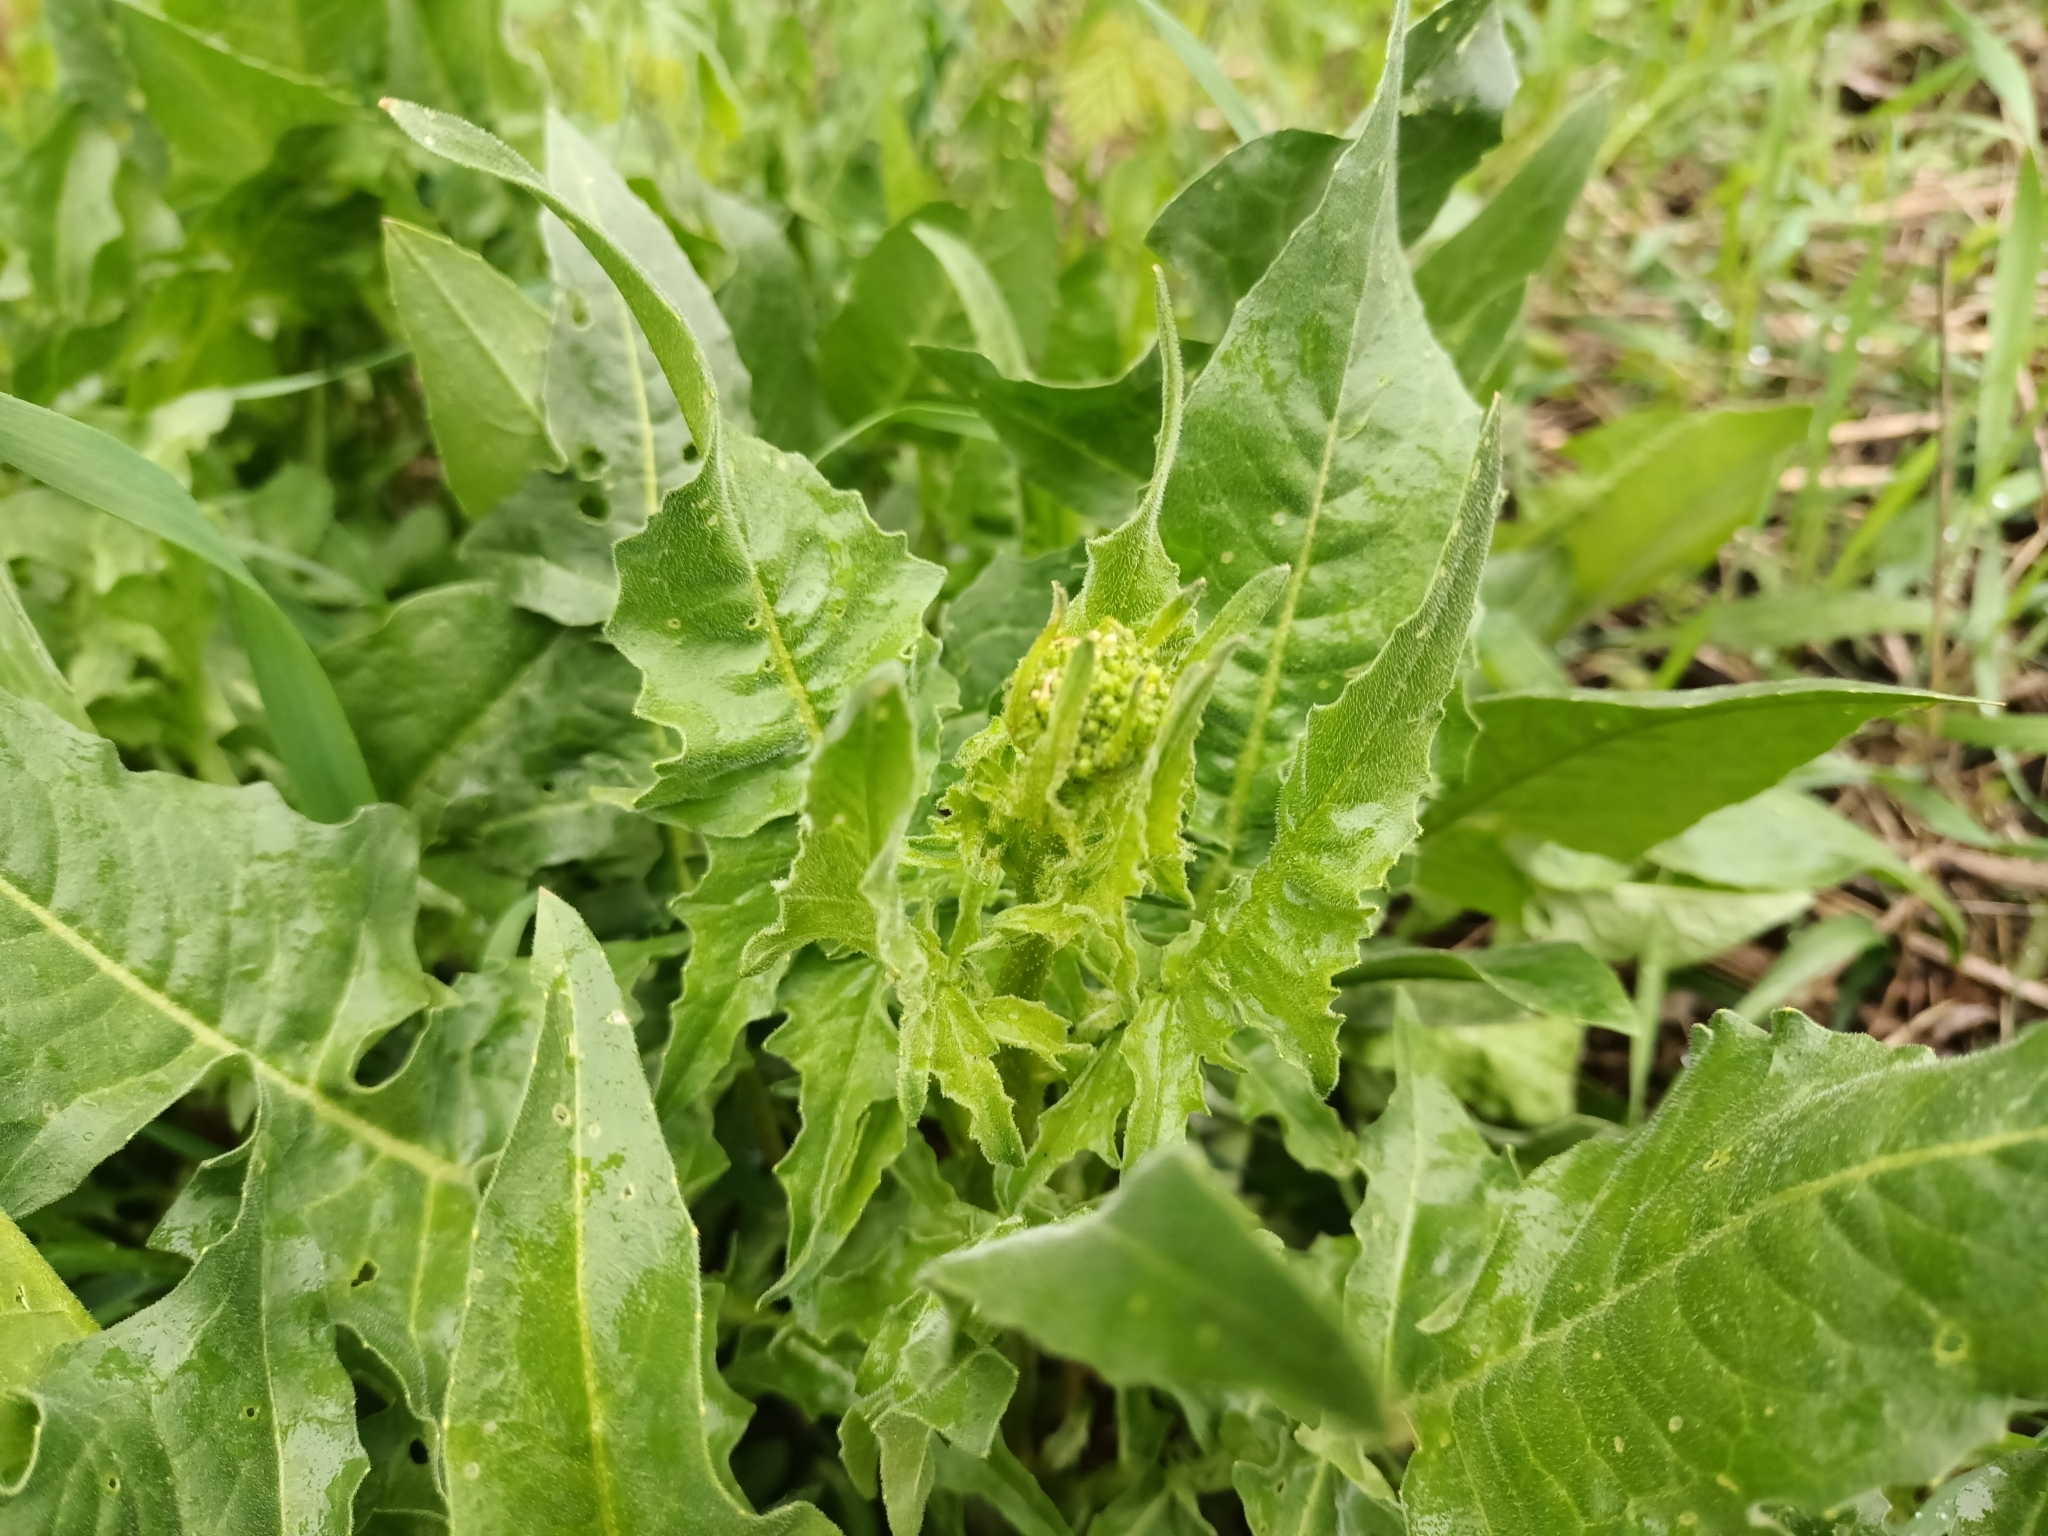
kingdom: Plantae
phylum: Tracheophyta
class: Magnoliopsida
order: Brassicales
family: Brassicaceae
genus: Bunias
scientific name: Bunias orientalis
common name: Warty-cabbage
